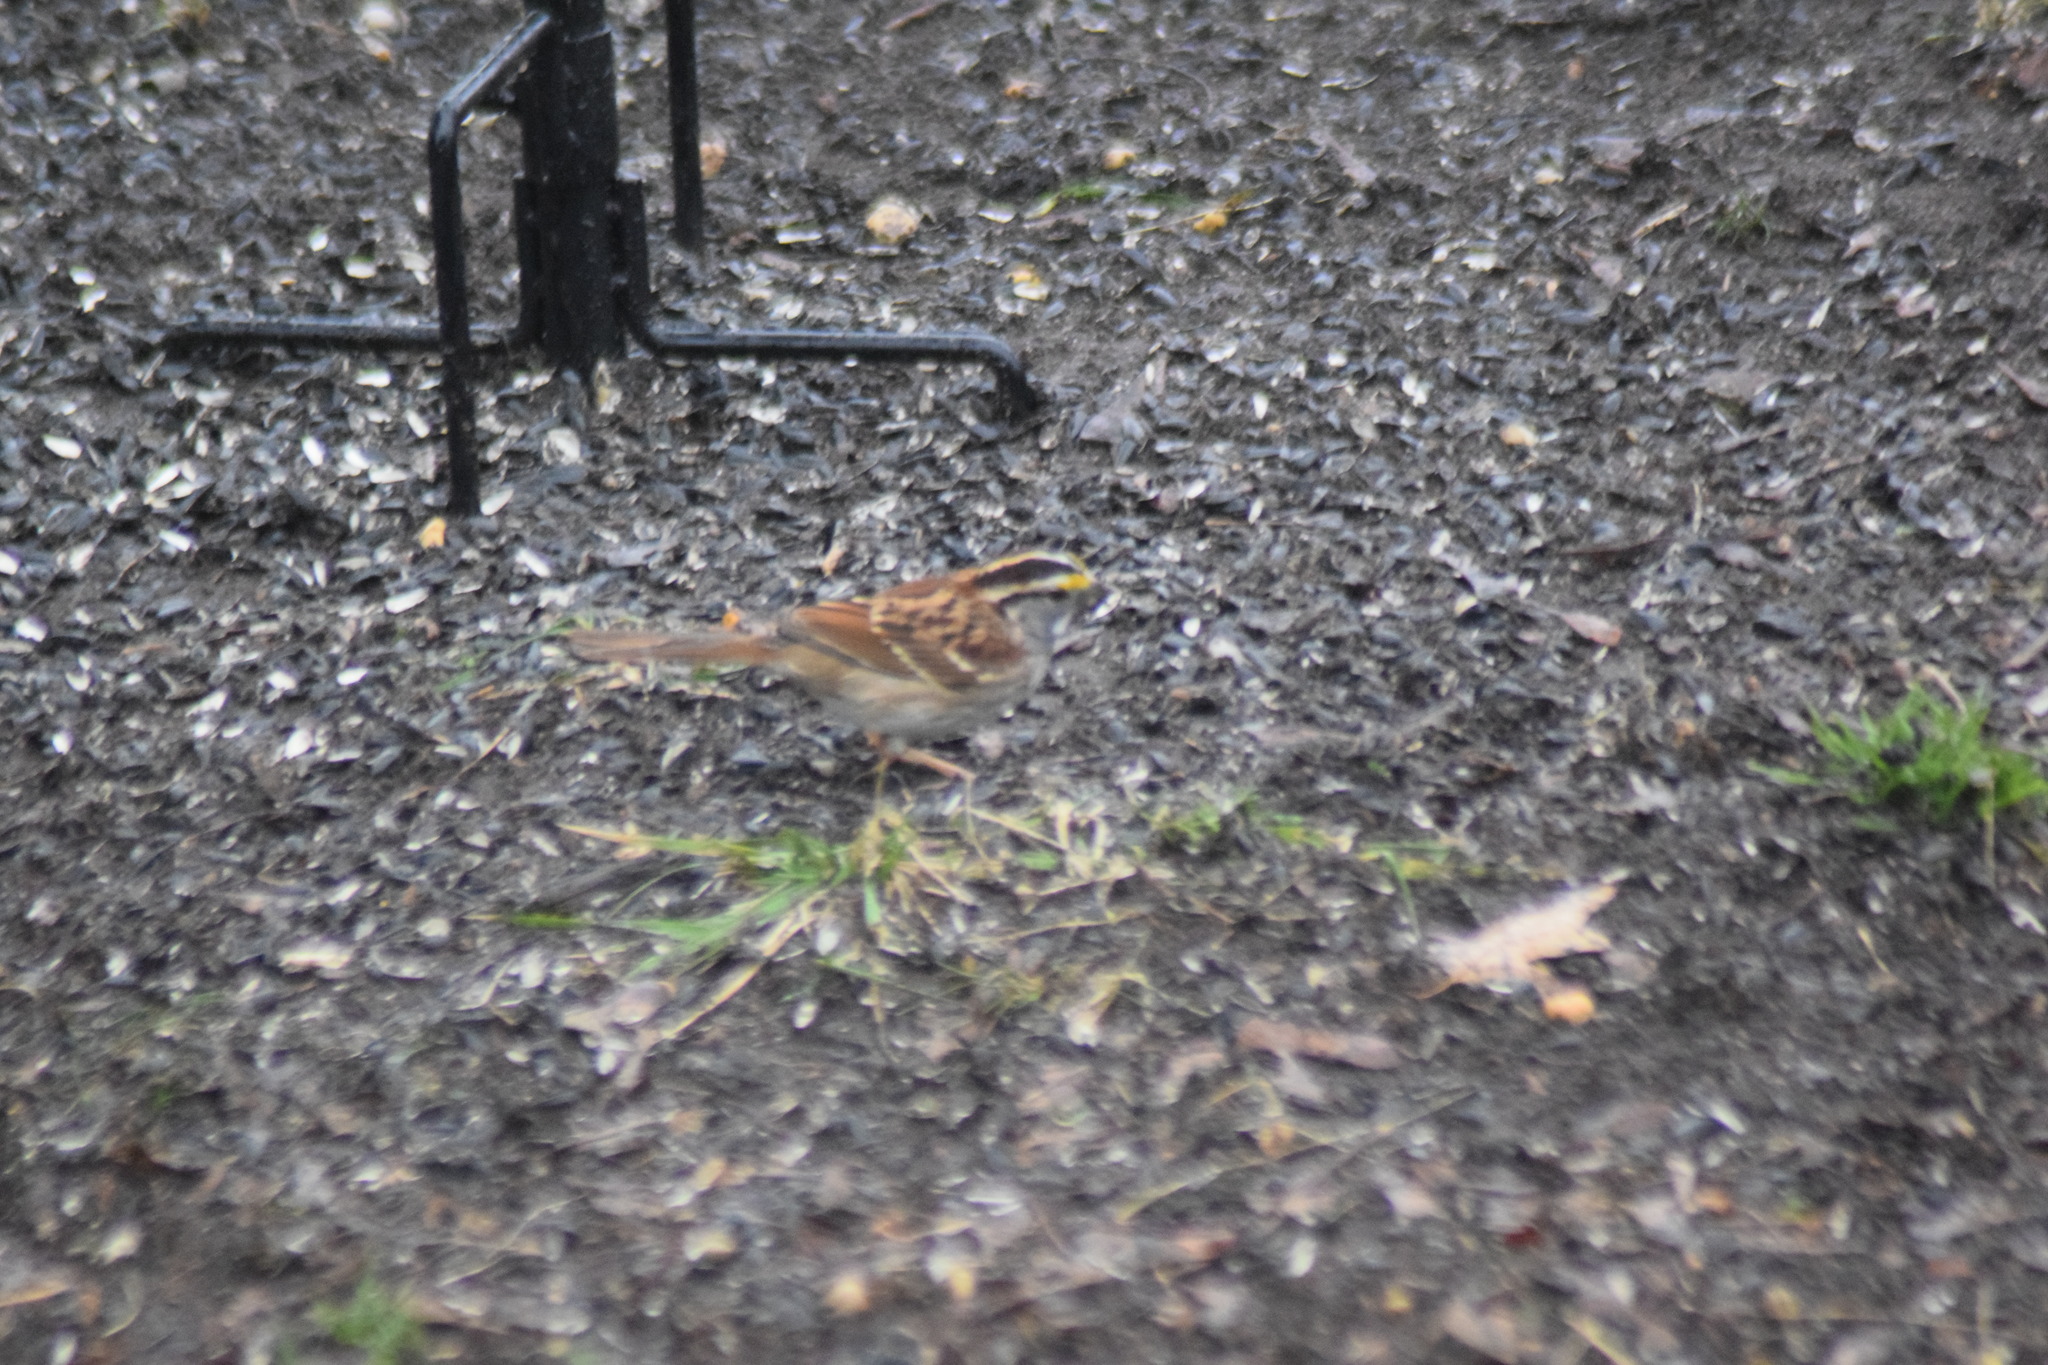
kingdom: Animalia
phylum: Chordata
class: Aves
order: Passeriformes
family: Passerellidae
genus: Zonotrichia
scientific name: Zonotrichia albicollis
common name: White-throated sparrow
